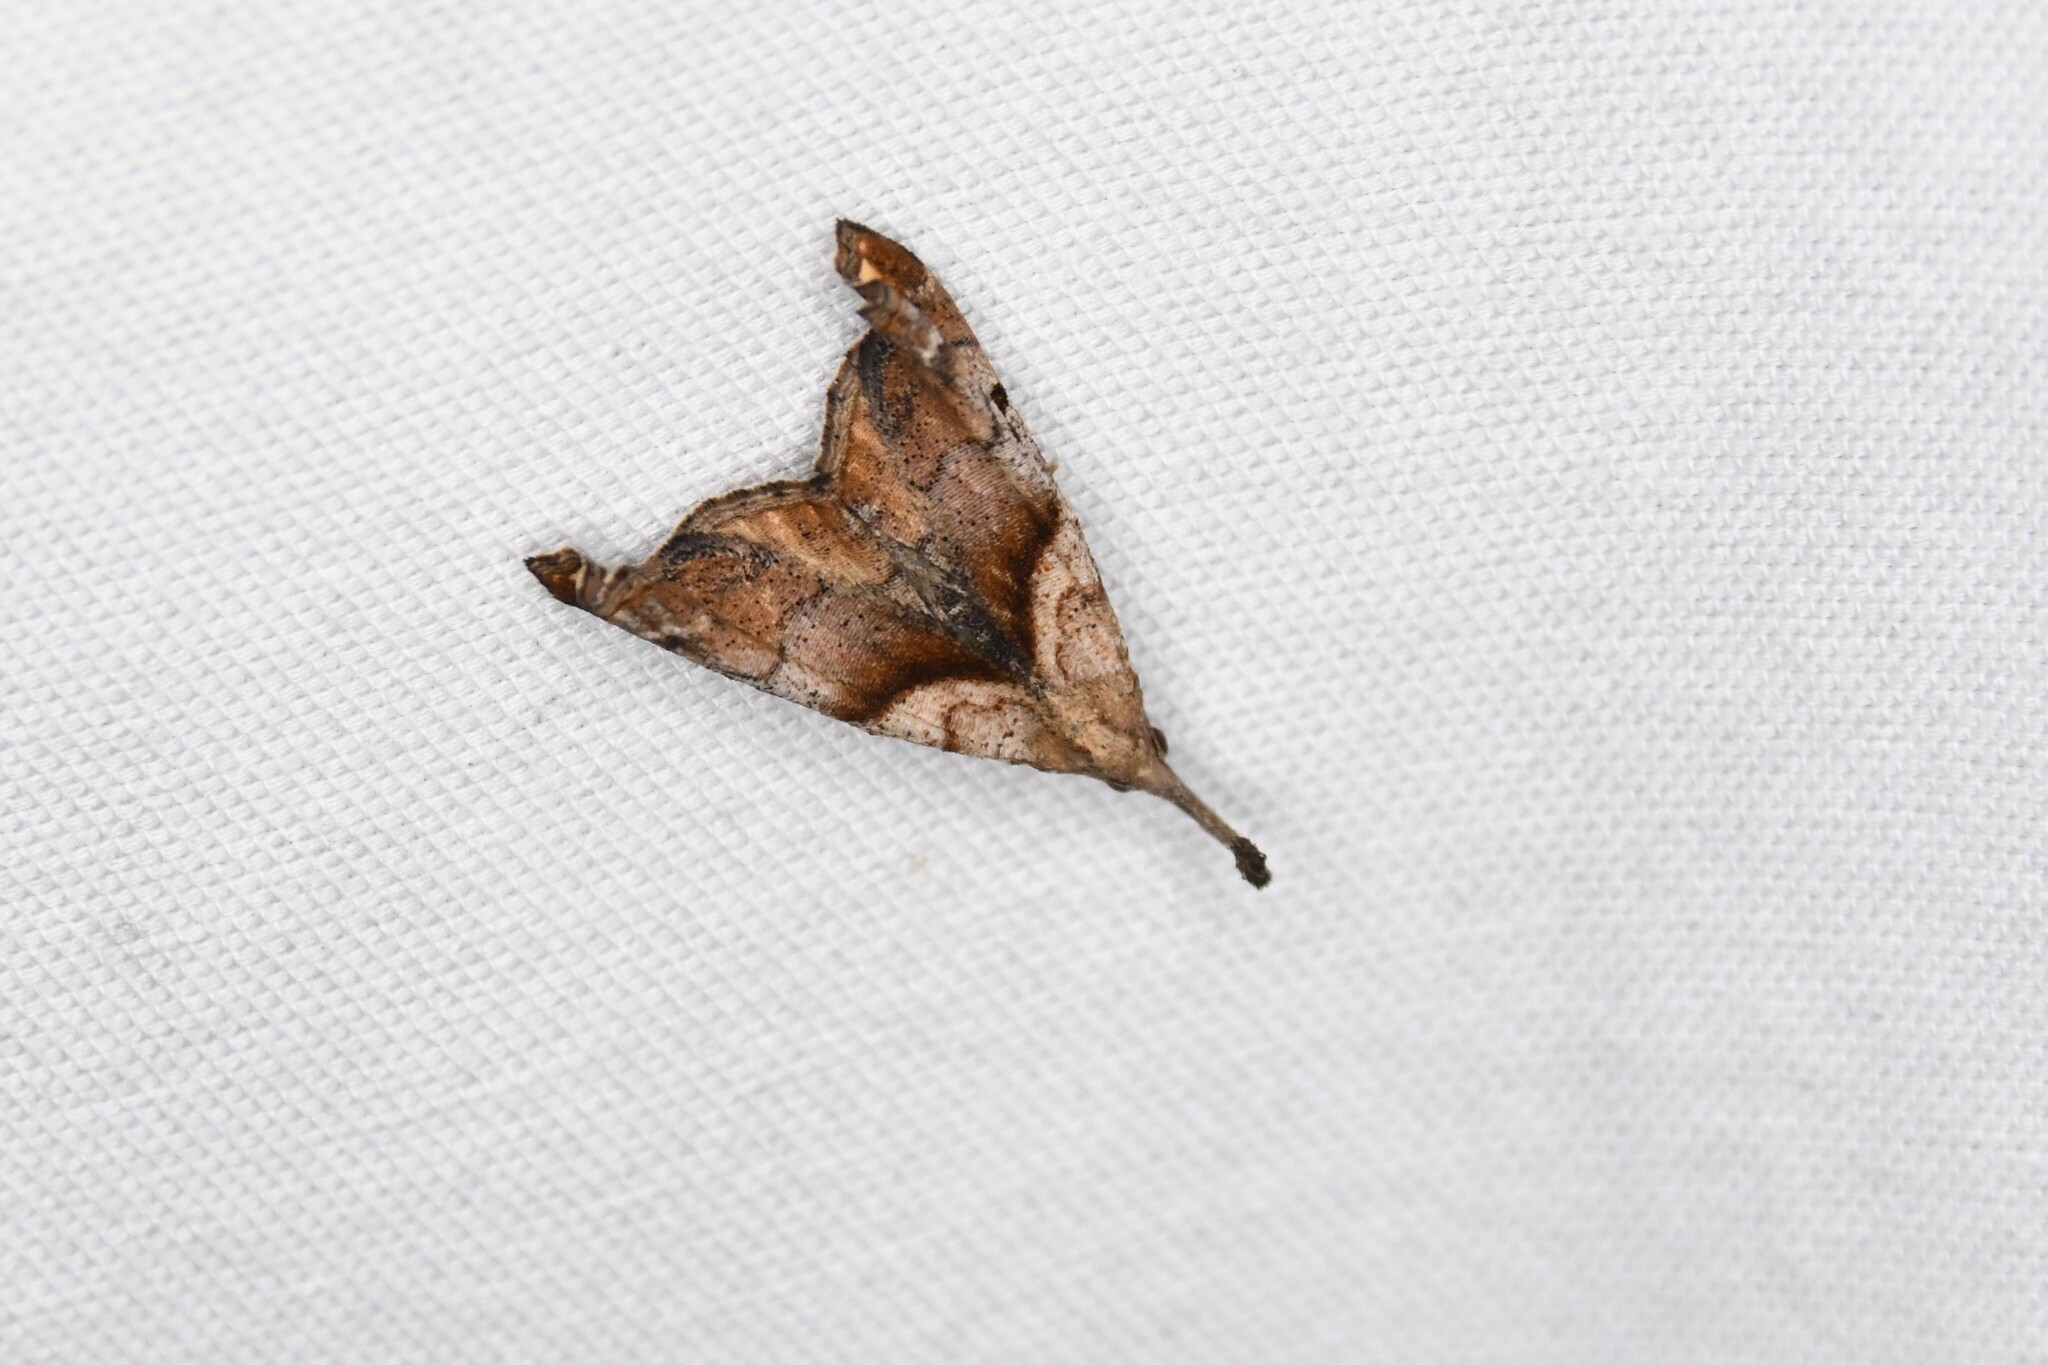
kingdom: Animalia
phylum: Arthropoda
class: Insecta
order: Lepidoptera
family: Erebidae
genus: Palthis
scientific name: Palthis angulalis
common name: Dark-spotted palthis moth
